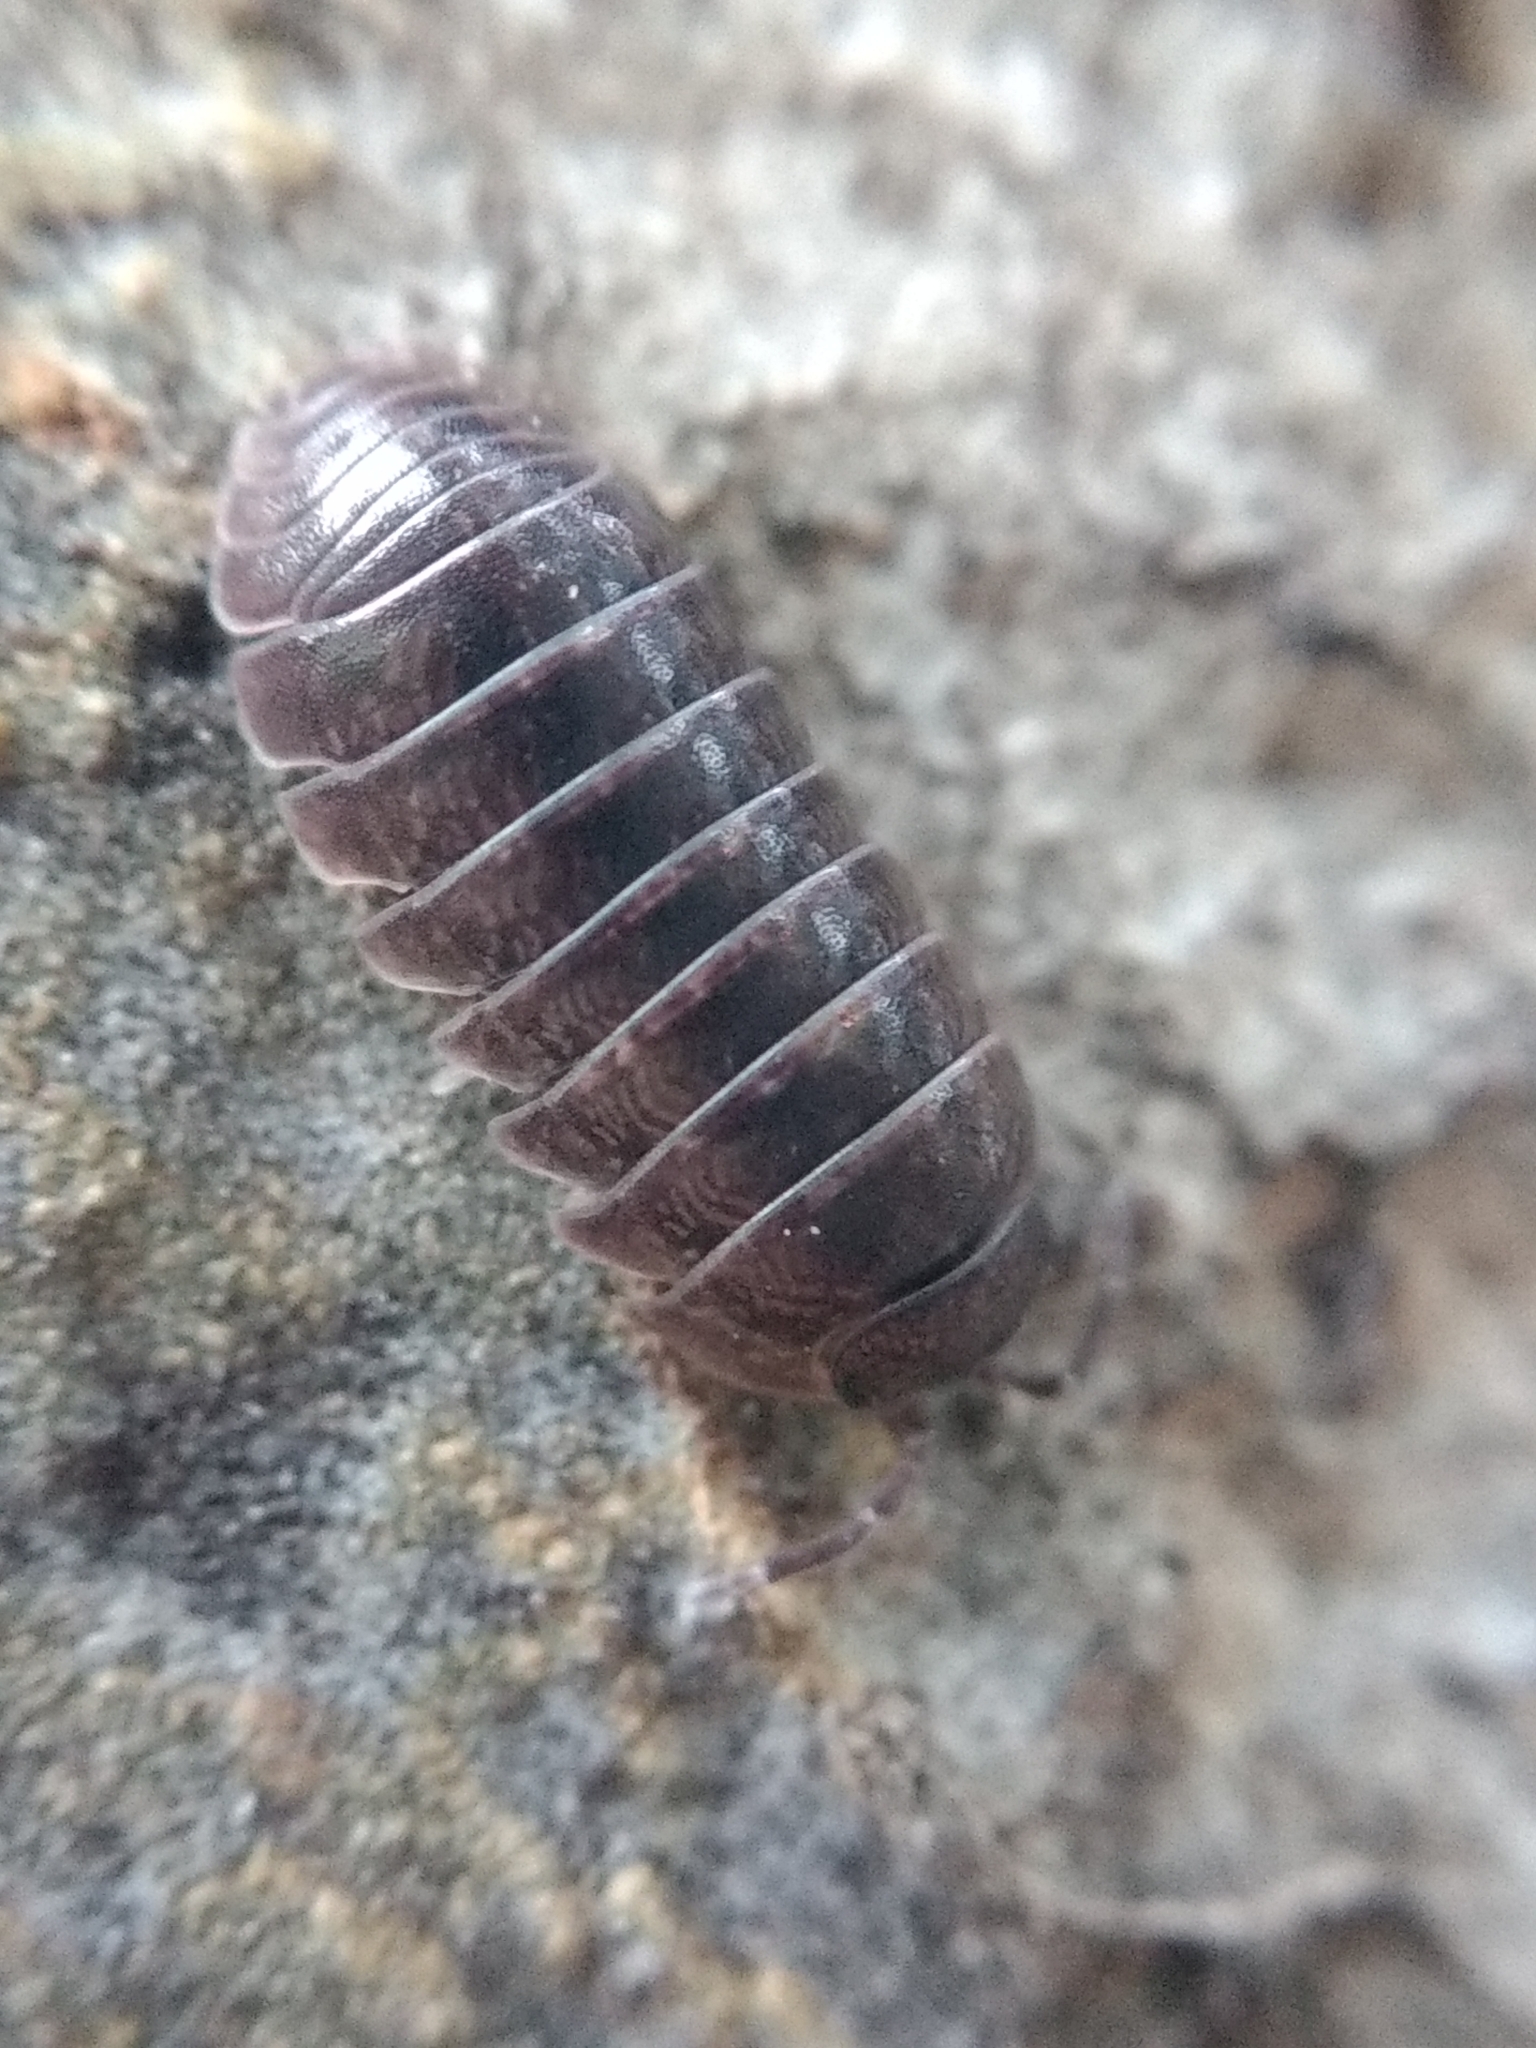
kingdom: Animalia
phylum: Arthropoda
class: Malacostraca
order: Isopoda
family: Armadillidiidae
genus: Armadillidium
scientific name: Armadillidium vulgare
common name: Common pill woodlouse
